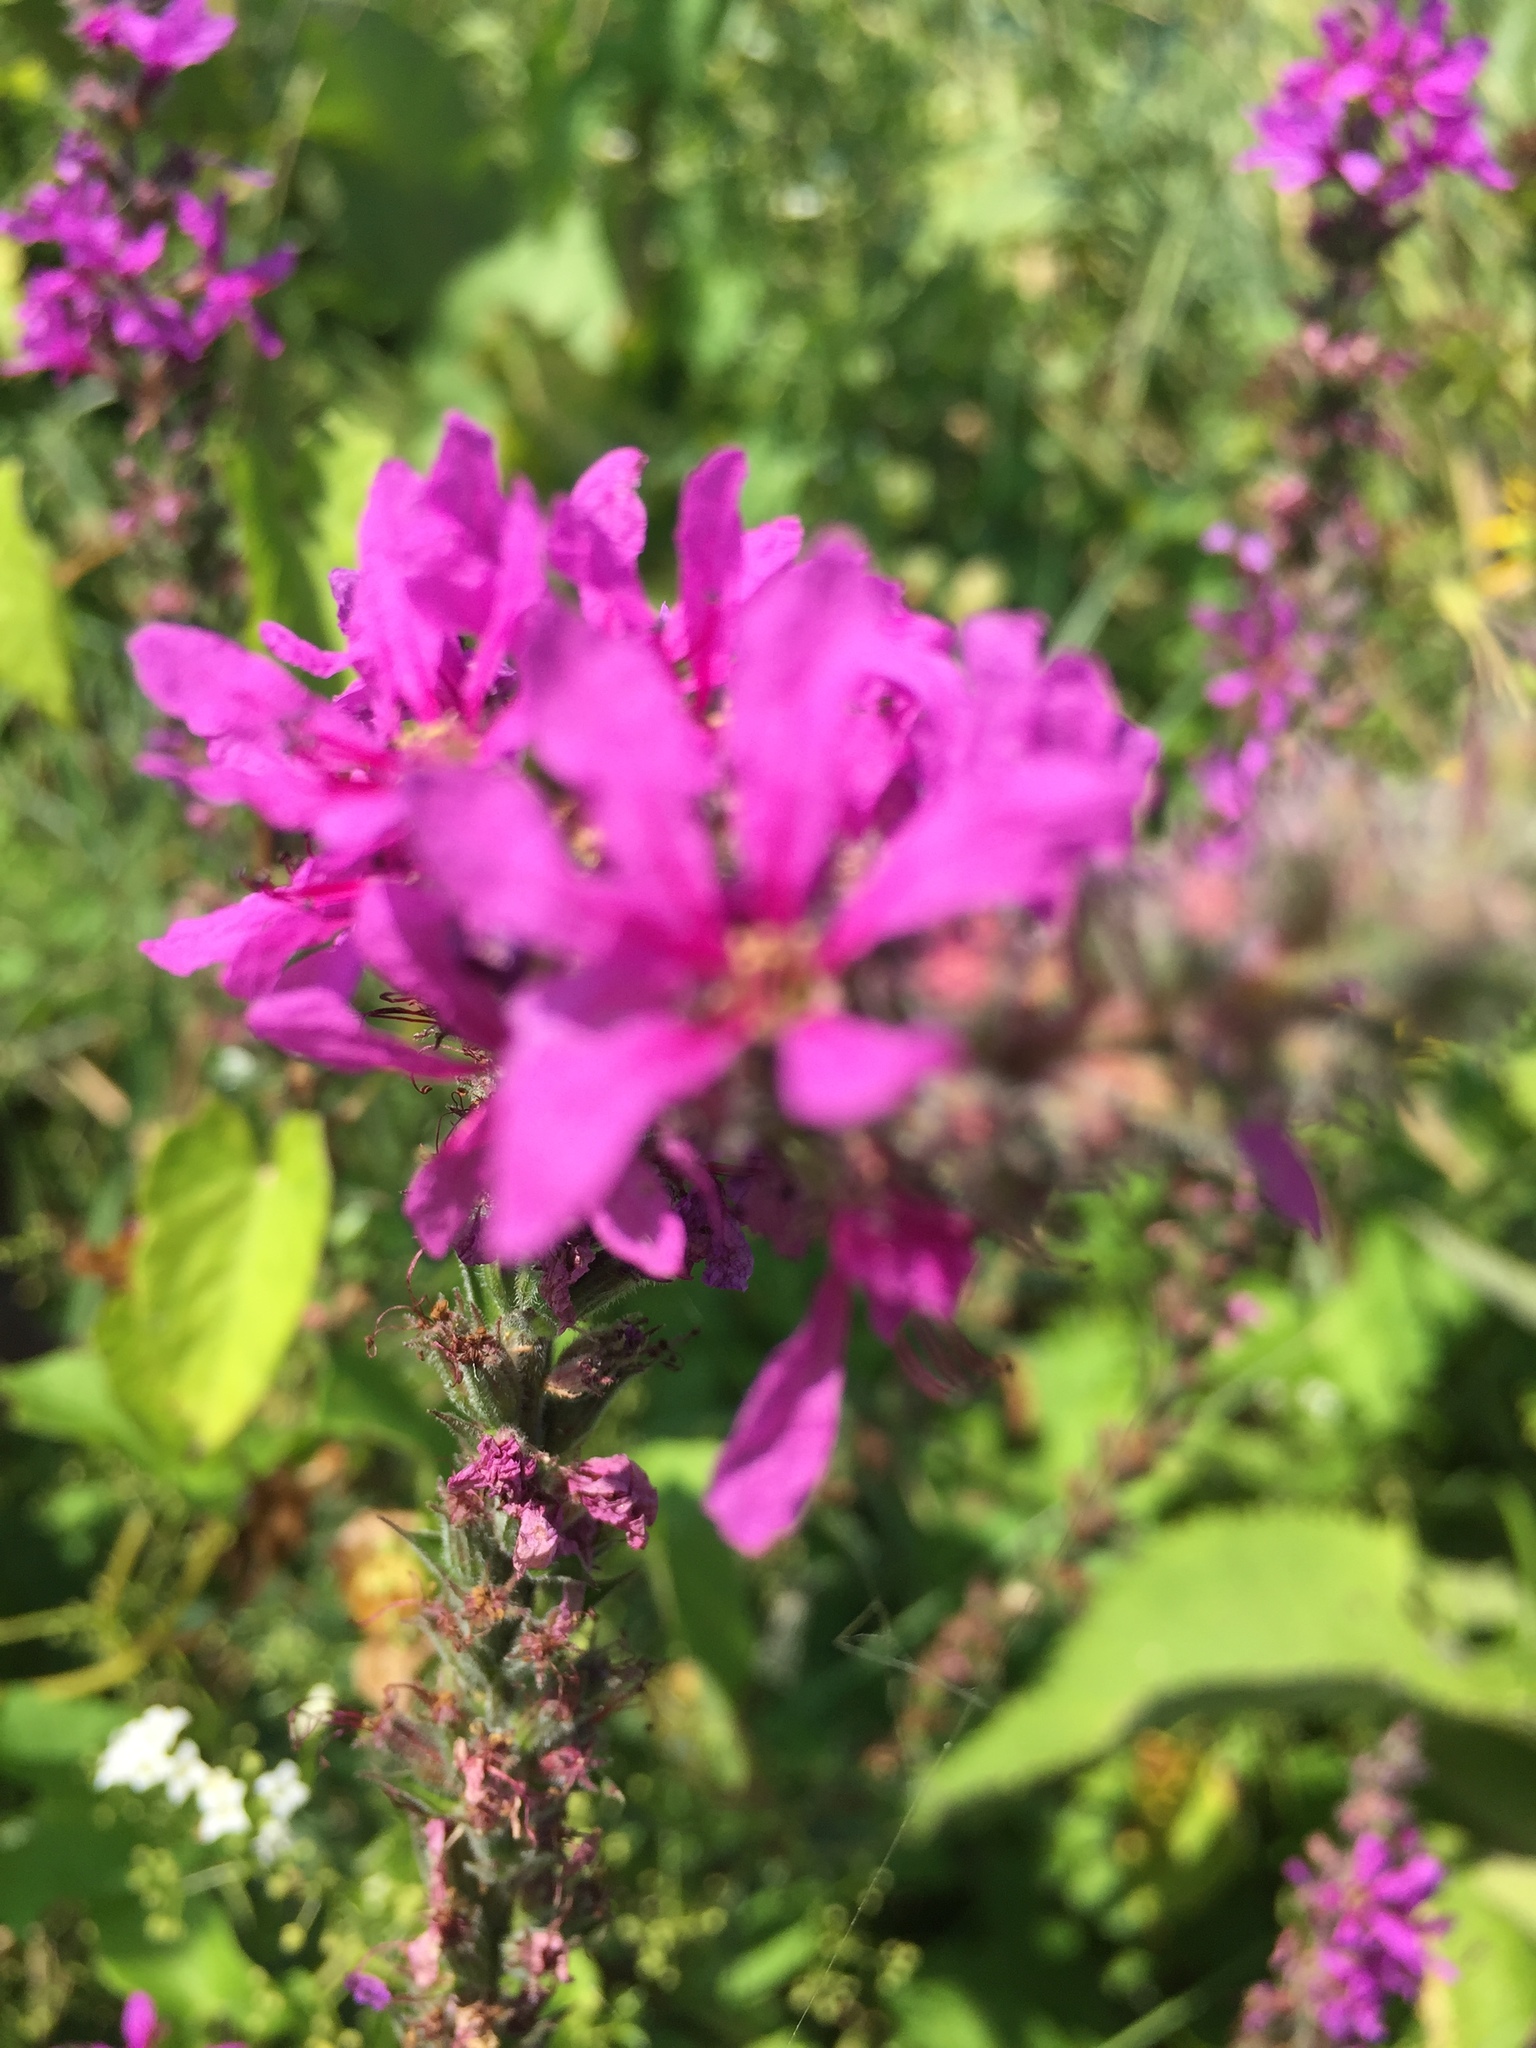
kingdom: Plantae
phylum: Tracheophyta
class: Magnoliopsida
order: Myrtales
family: Lythraceae
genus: Lythrum
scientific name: Lythrum salicaria
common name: Purple loosestrife
